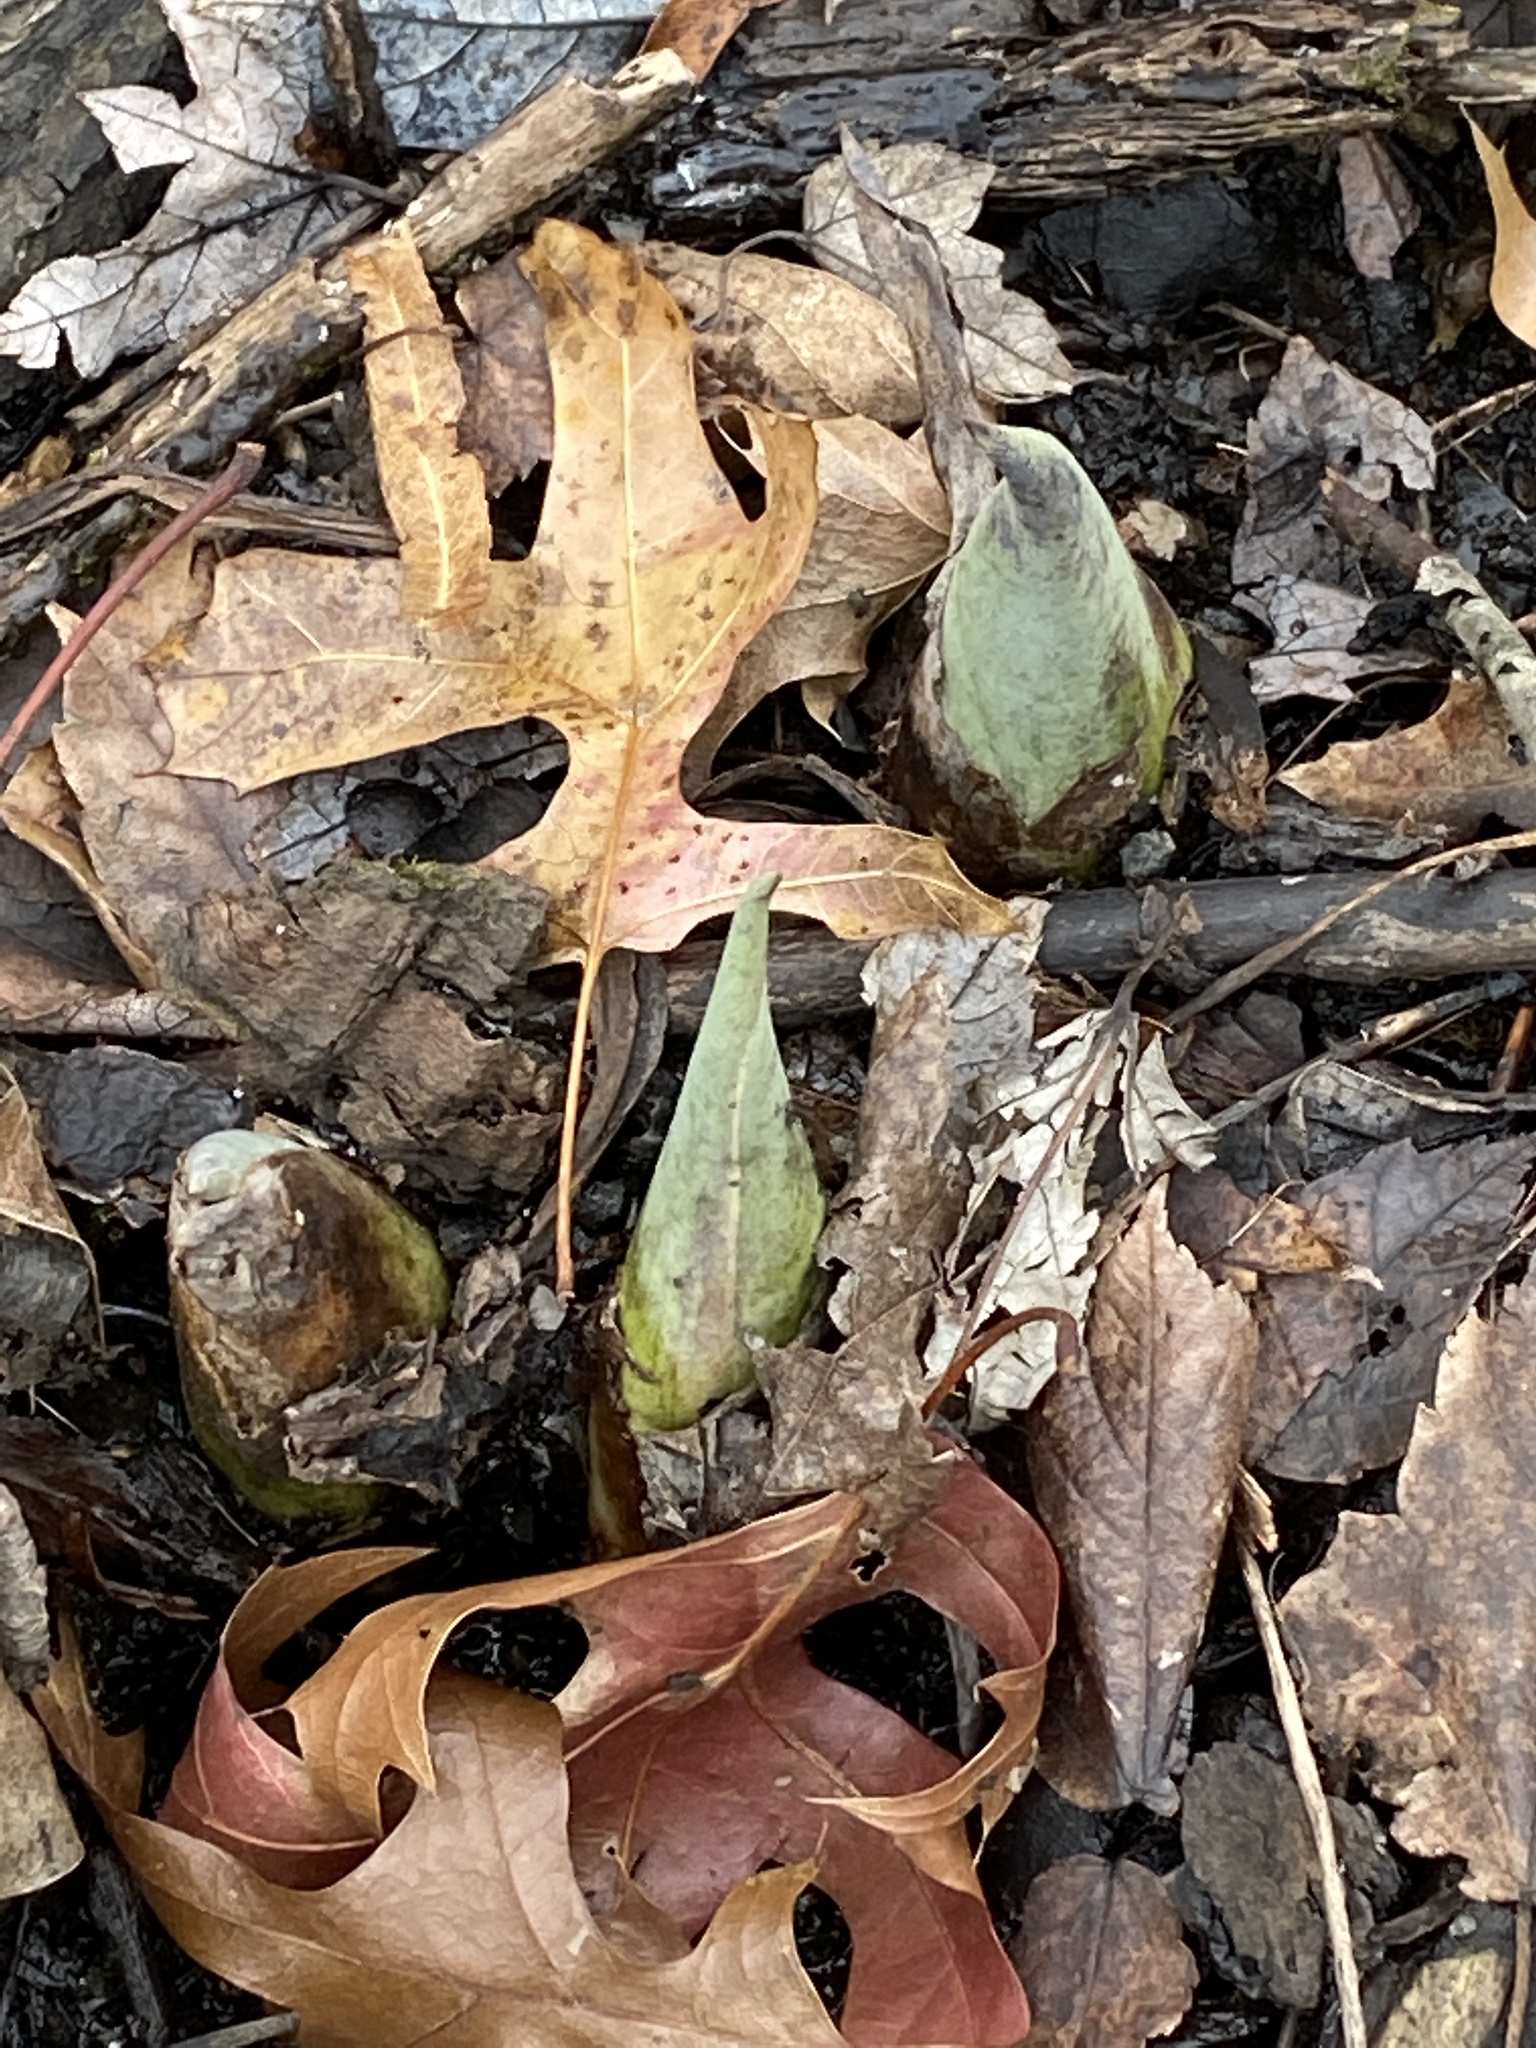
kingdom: Plantae
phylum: Tracheophyta
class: Liliopsida
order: Alismatales
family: Araceae
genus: Symplocarpus
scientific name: Symplocarpus foetidus
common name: Eastern skunk cabbage
